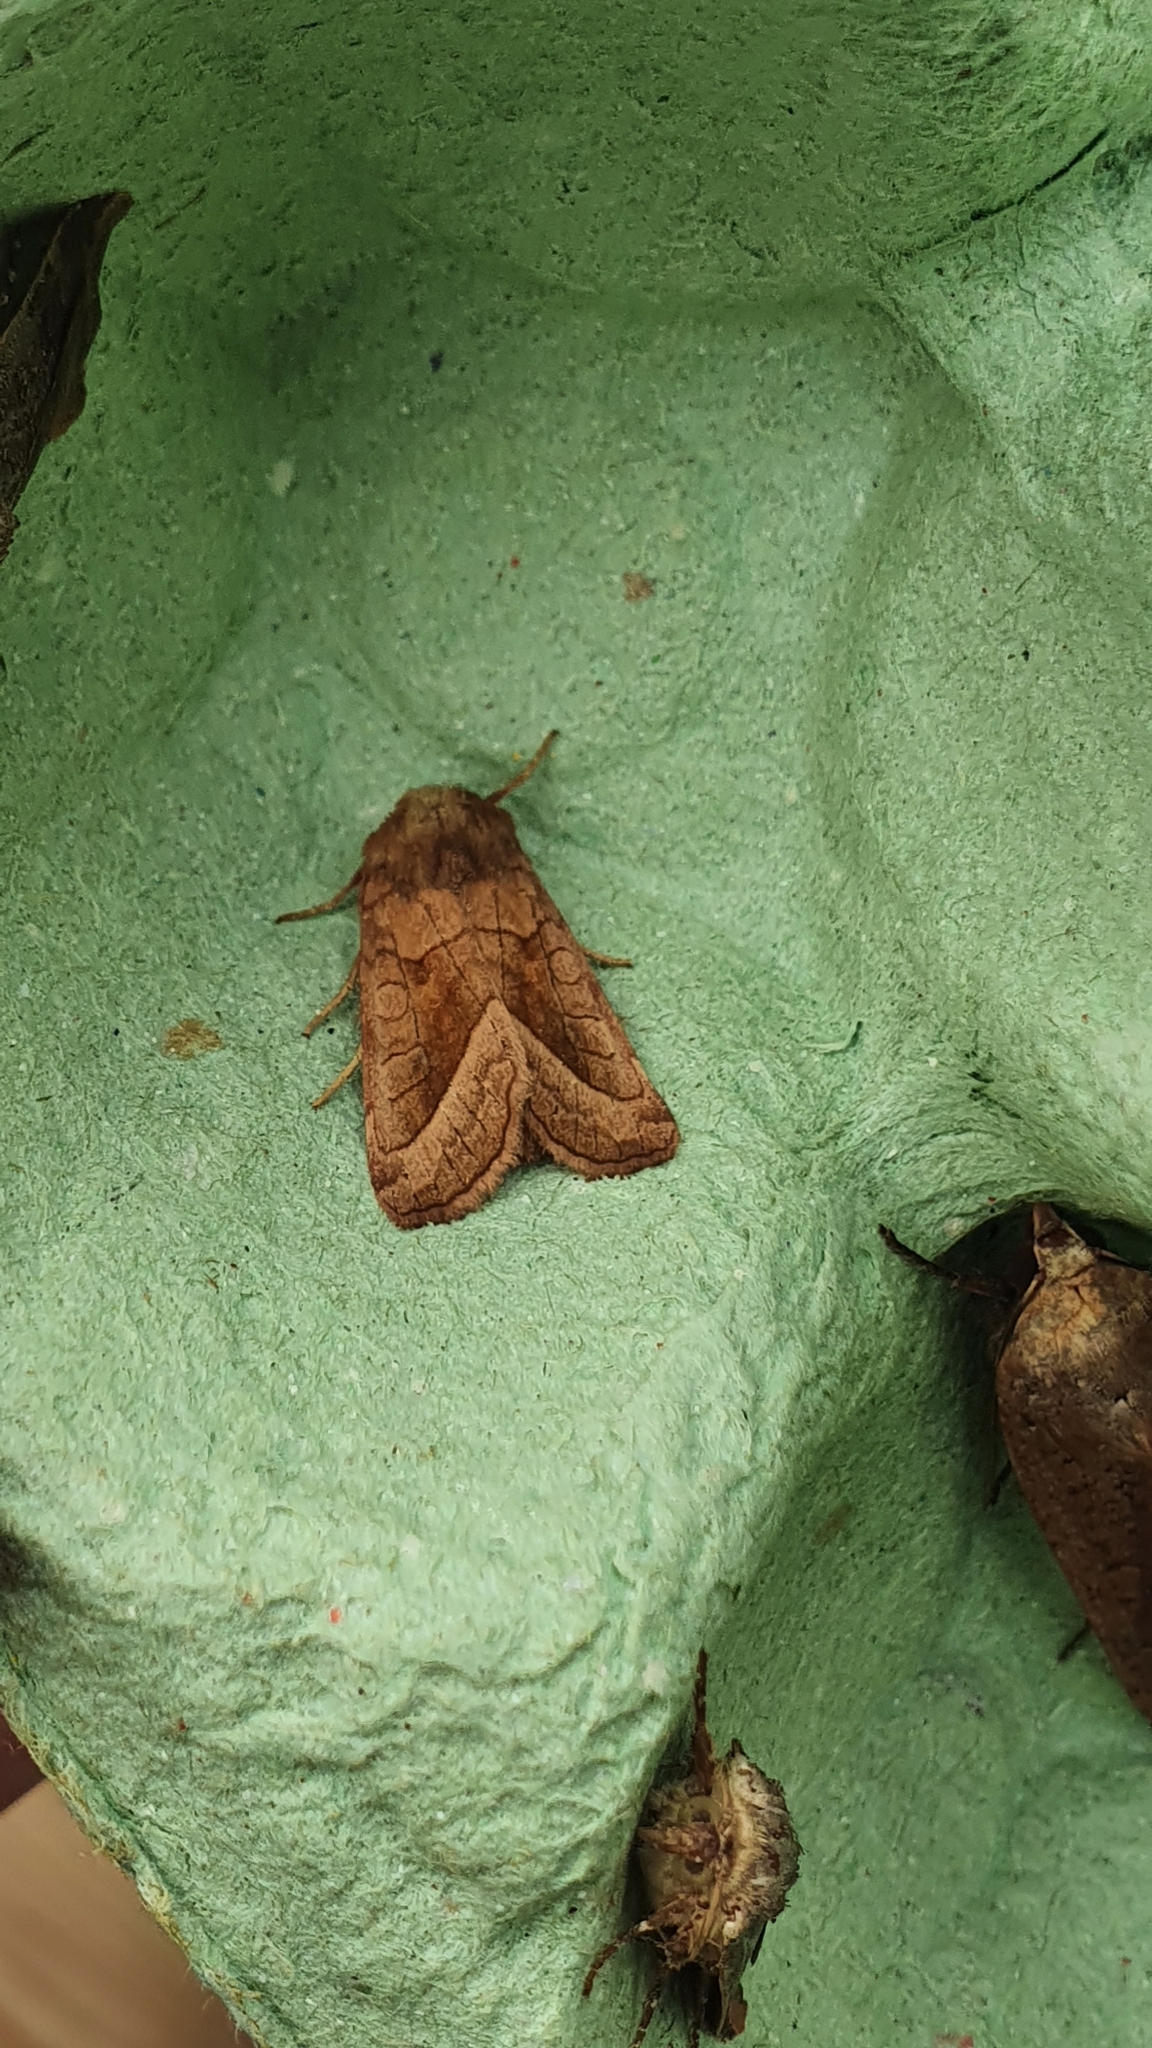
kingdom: Animalia
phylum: Arthropoda
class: Insecta
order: Lepidoptera
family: Noctuidae
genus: Hydraecia
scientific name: Hydraecia micacea
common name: Rosy rustic
